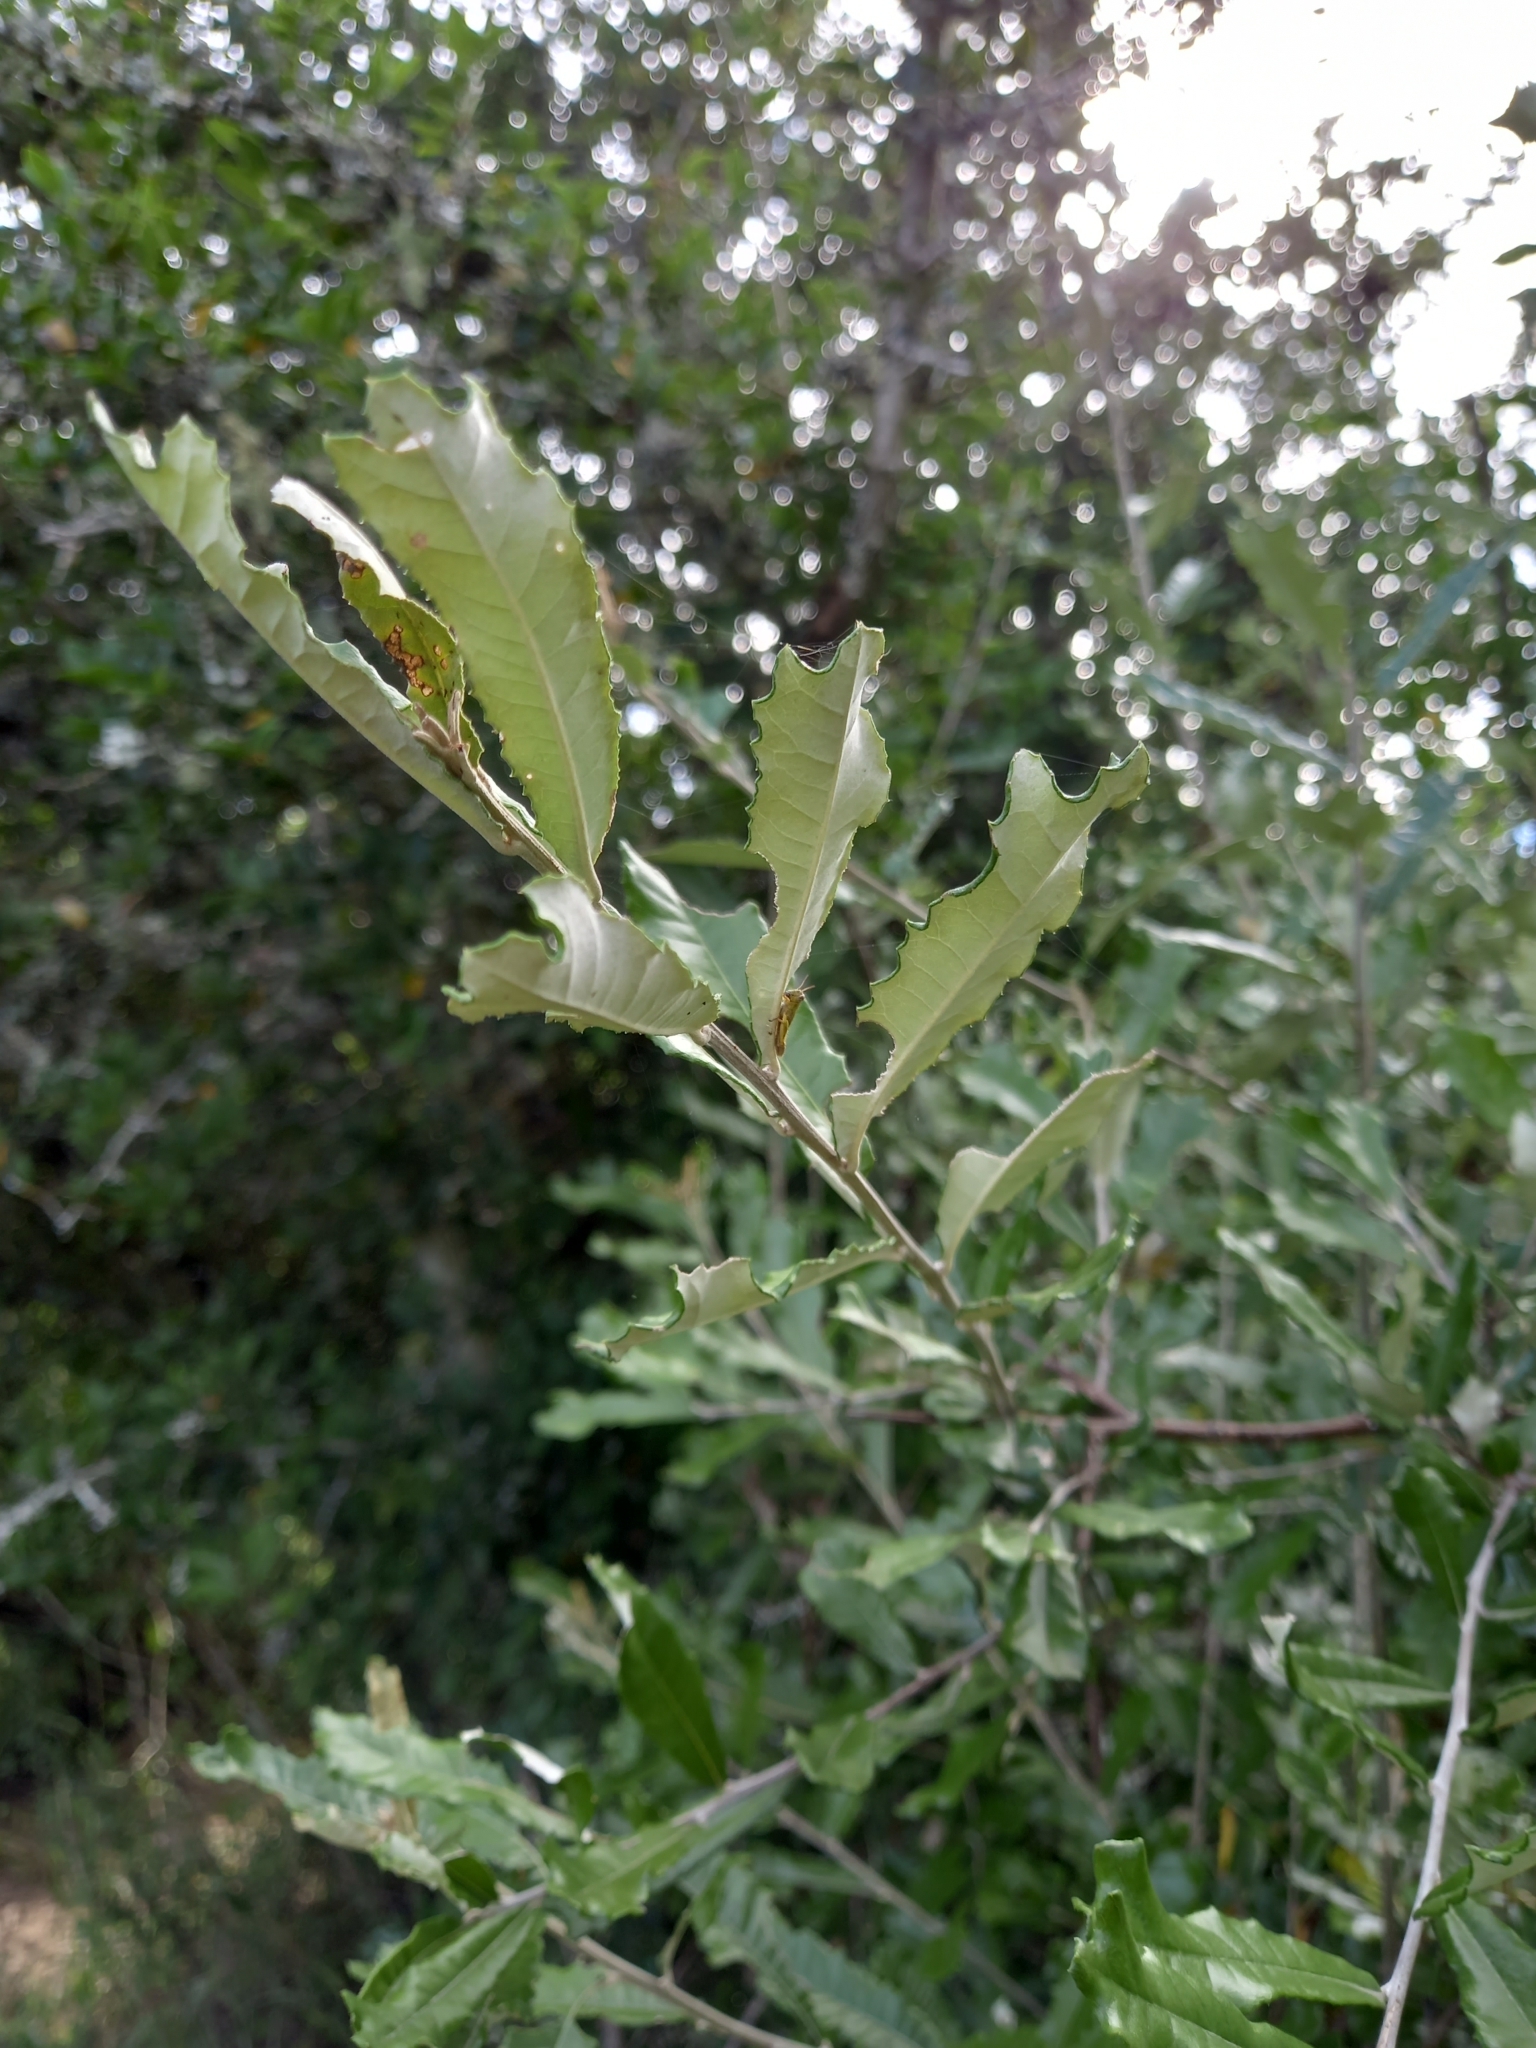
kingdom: Plantae
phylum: Tracheophyta
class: Magnoliopsida
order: Asterales
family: Asteraceae
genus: Brachylaena
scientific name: Brachylaena elliptica
